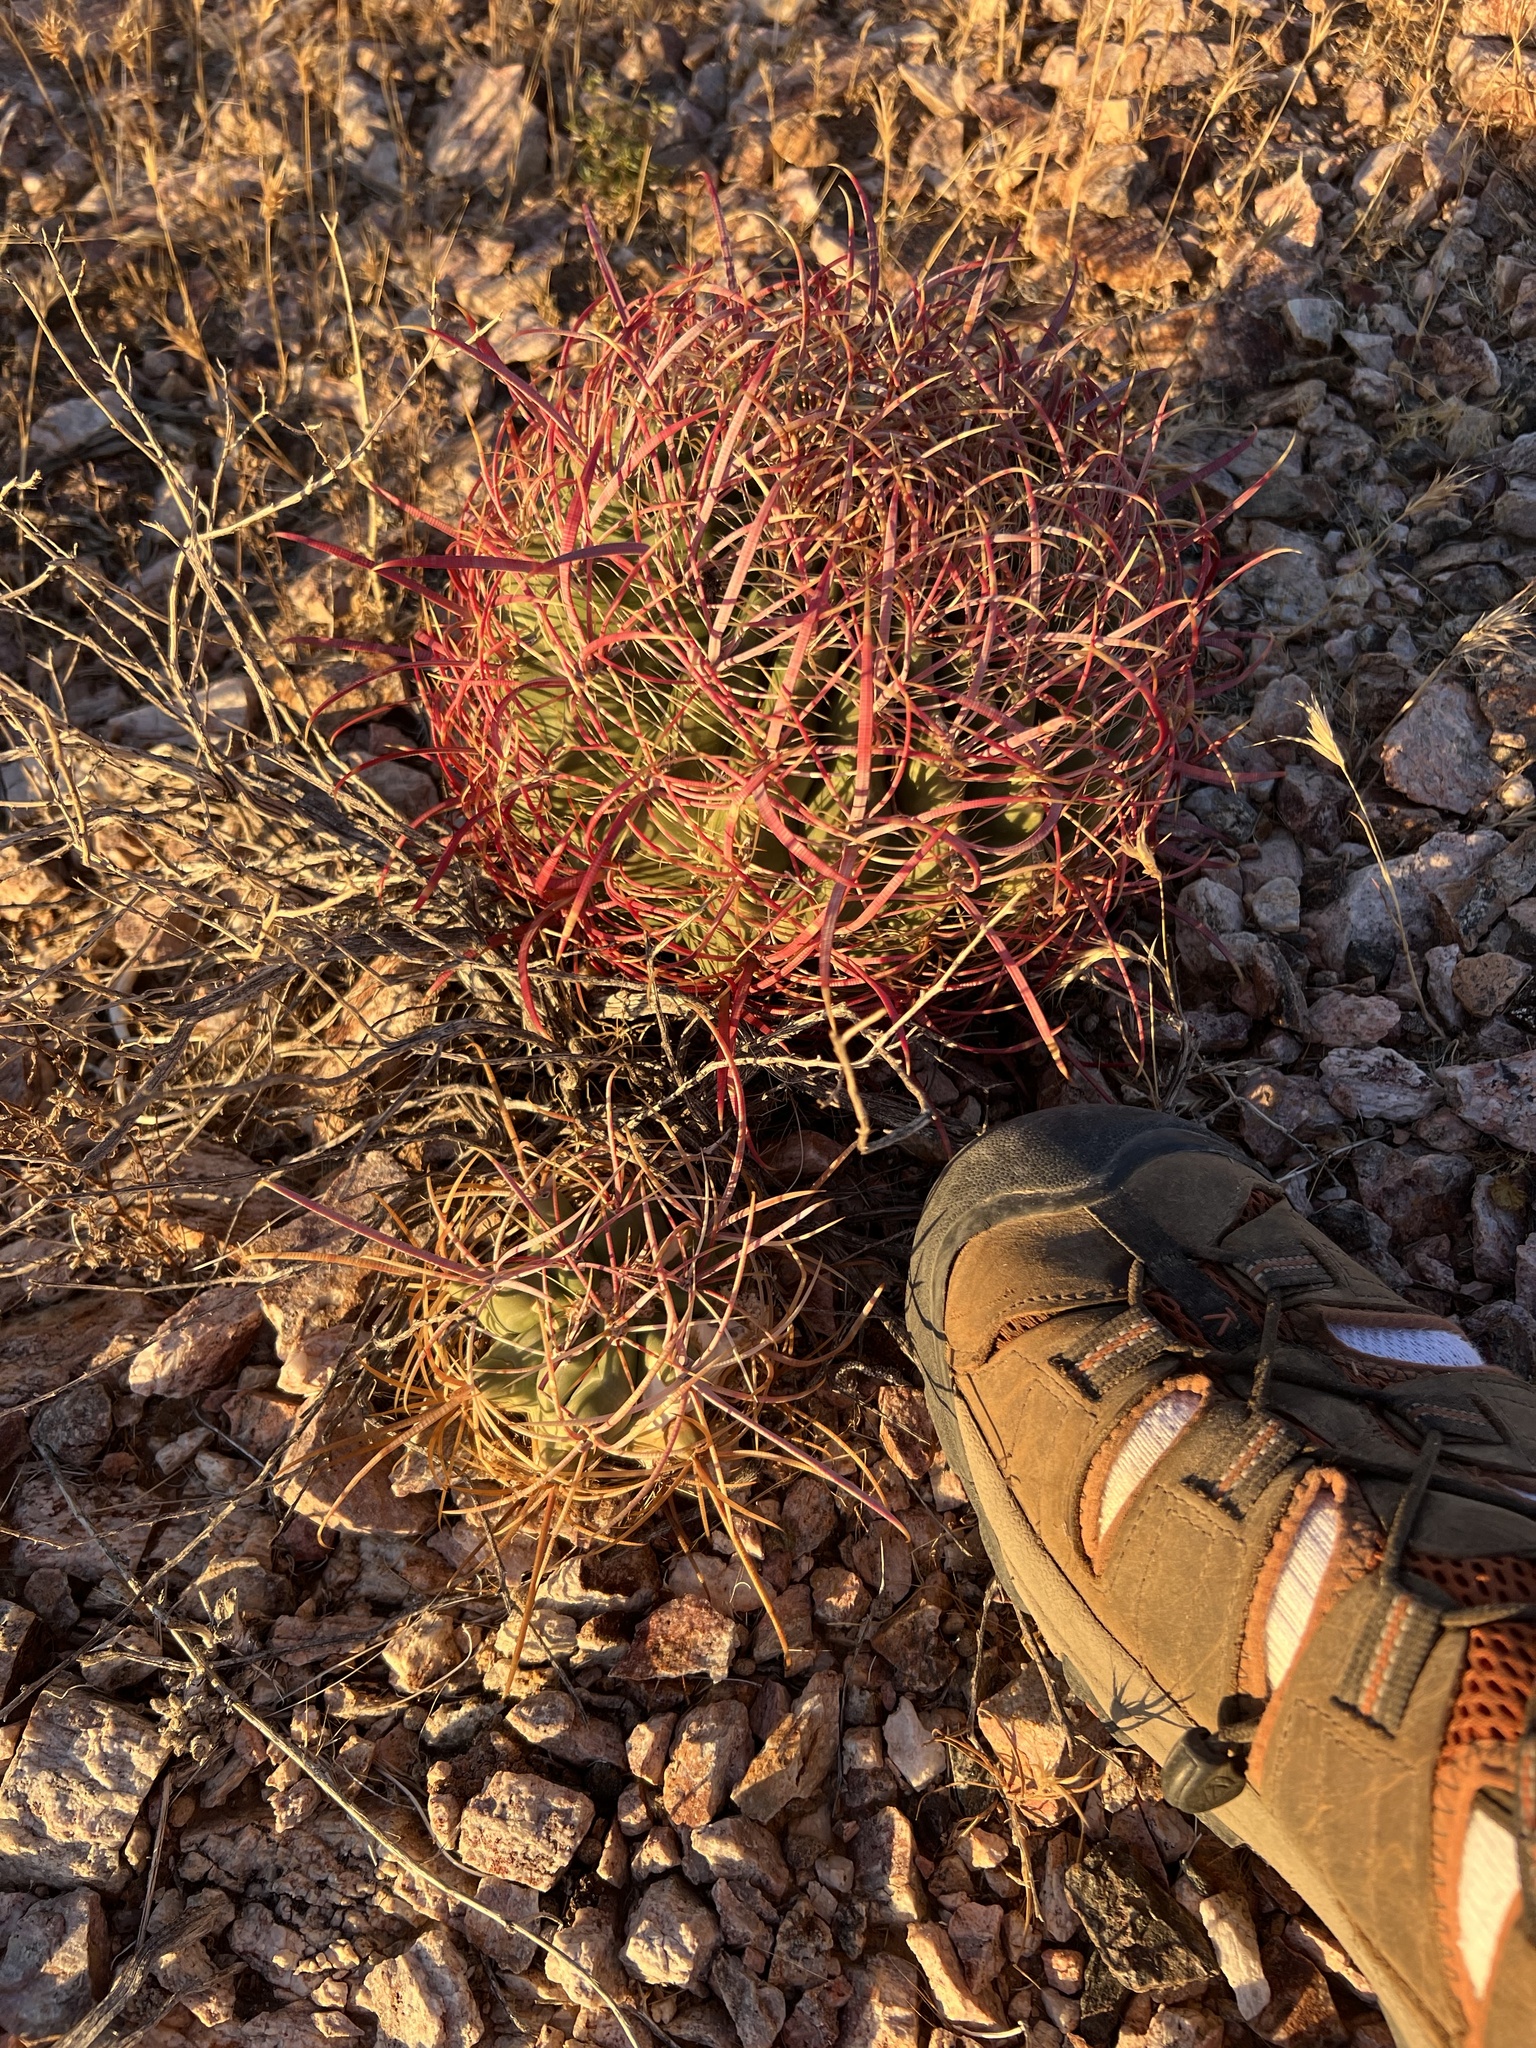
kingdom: Plantae
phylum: Tracheophyta
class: Magnoliopsida
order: Caryophyllales
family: Cactaceae
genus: Ferocactus
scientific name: Ferocactus cylindraceus
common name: California barrel cactus
